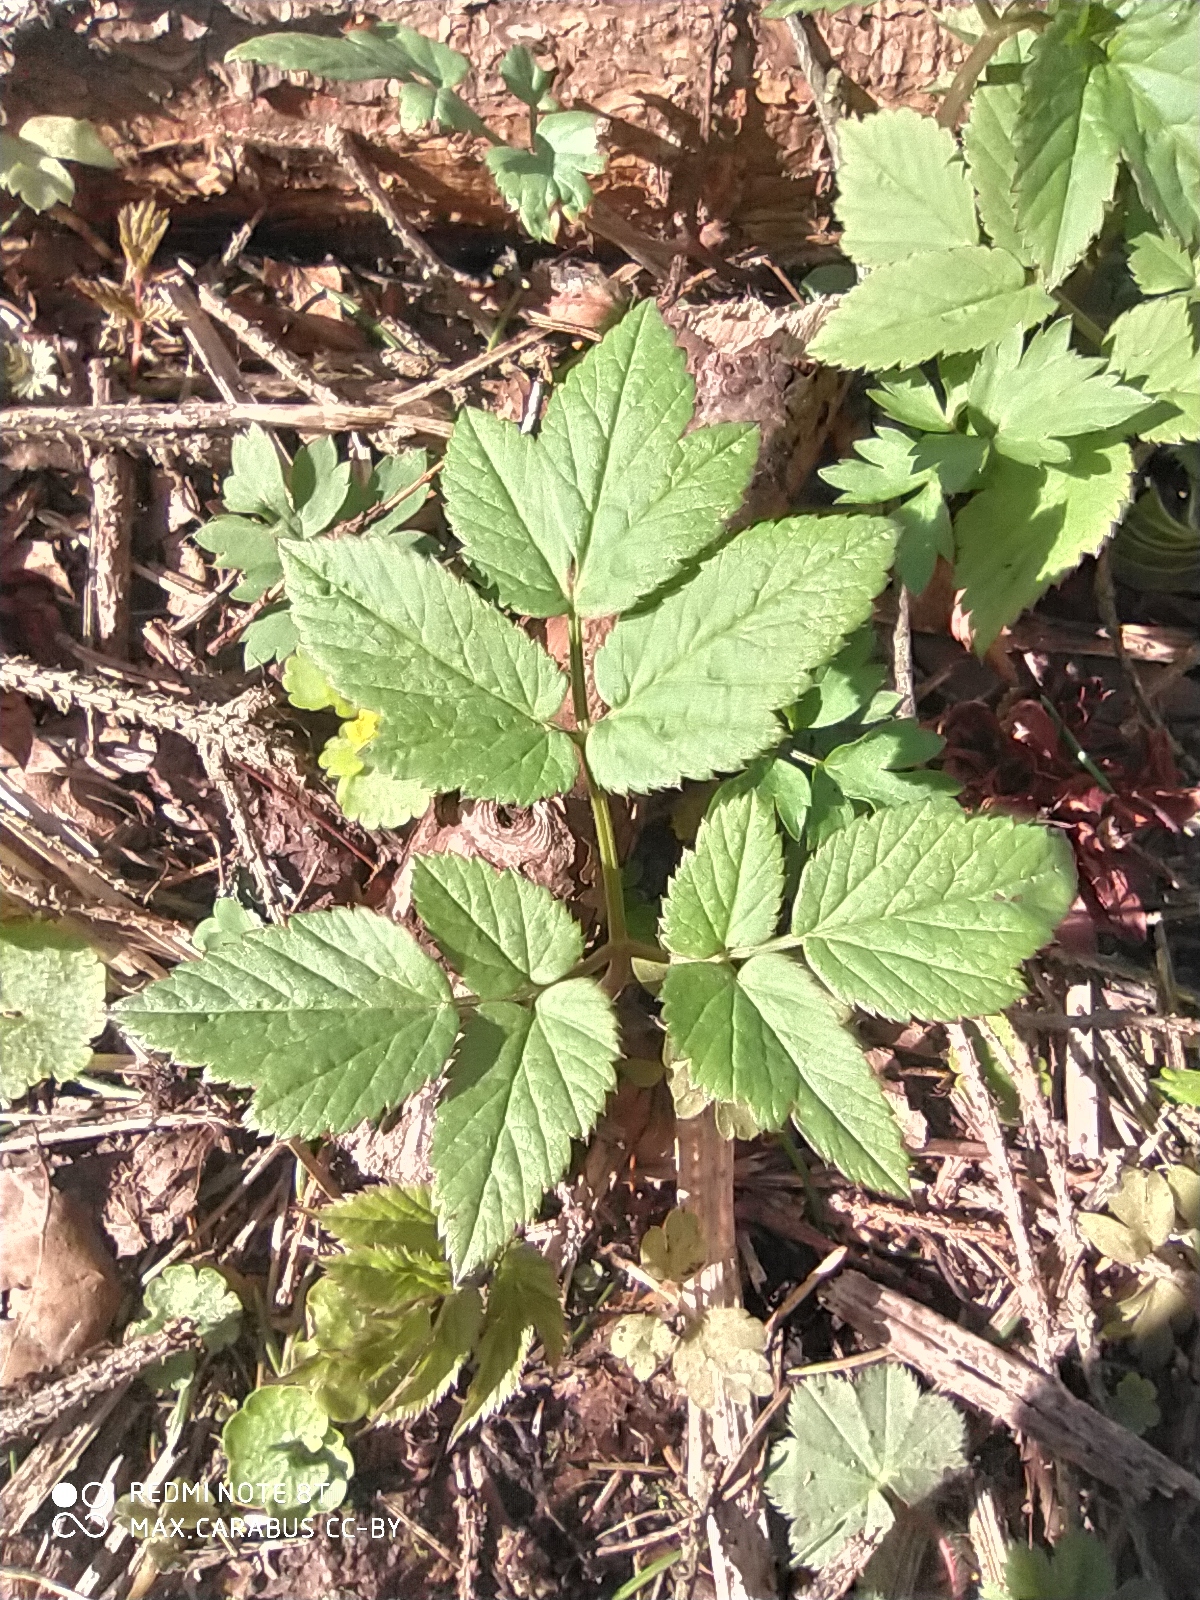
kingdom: Plantae
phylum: Tracheophyta
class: Magnoliopsida
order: Apiales
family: Apiaceae
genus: Aegopodium
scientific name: Aegopodium podagraria
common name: Ground-elder
